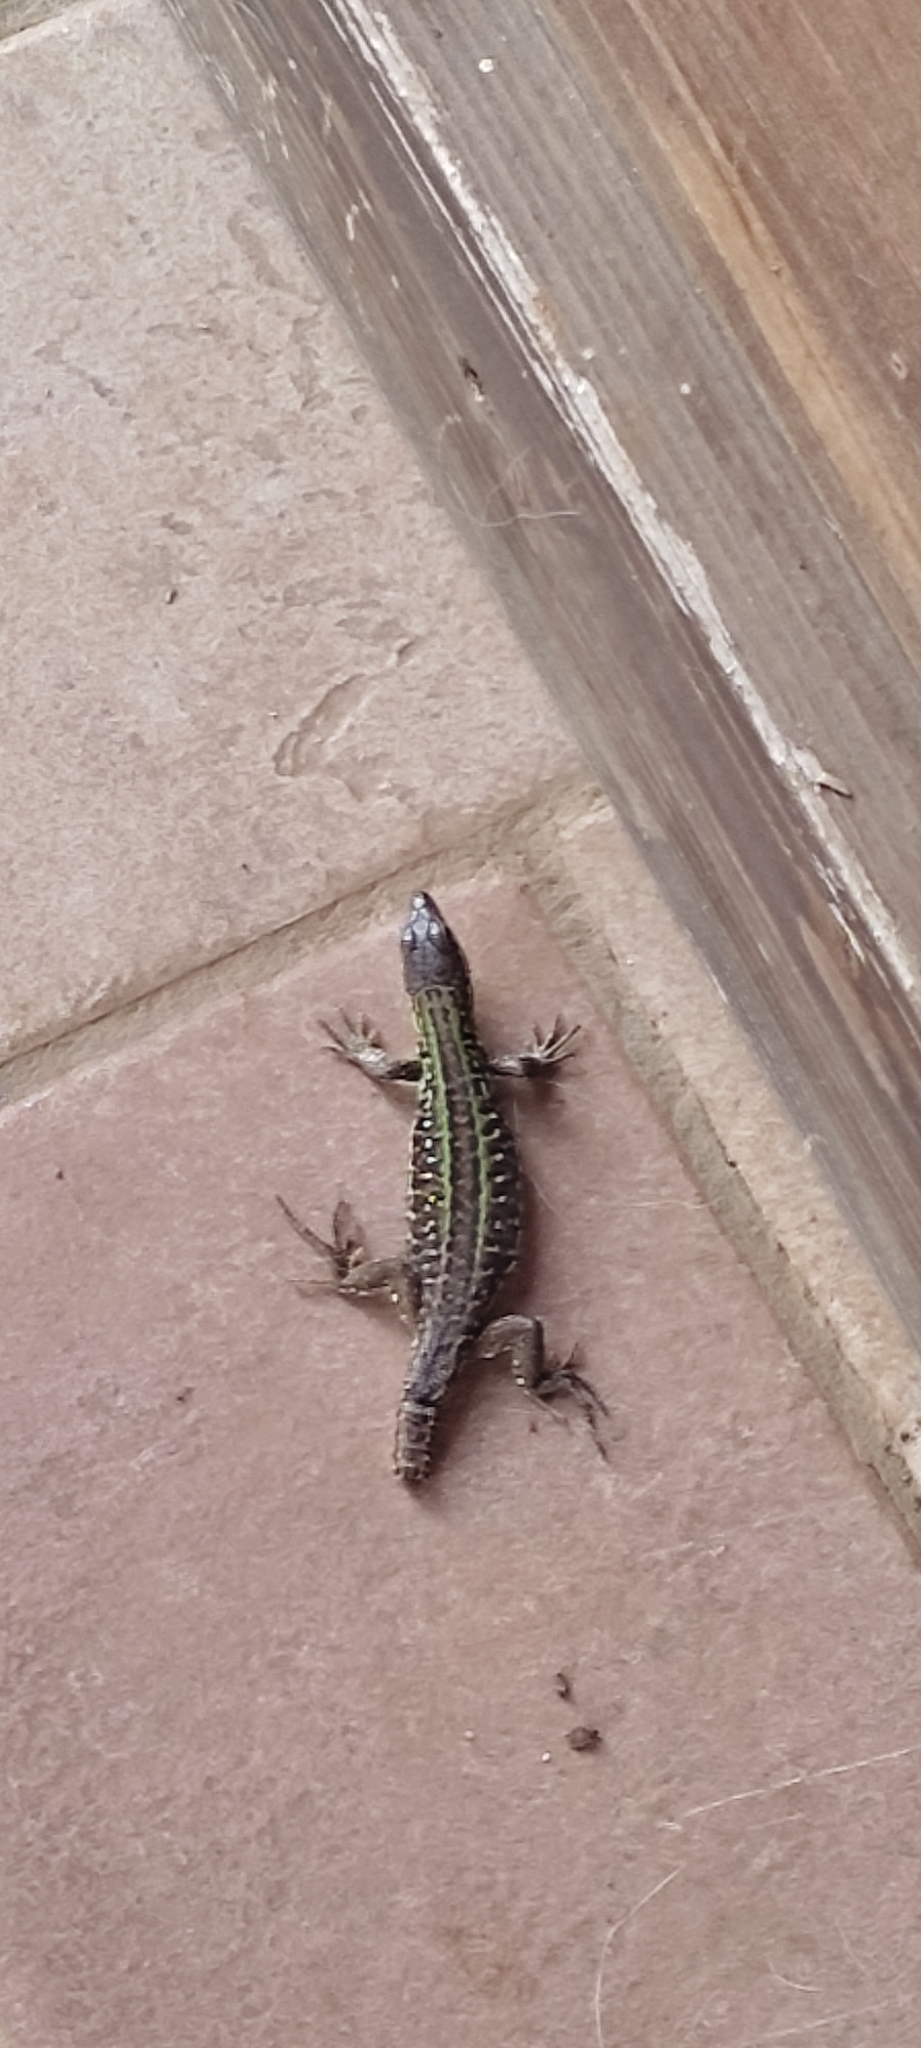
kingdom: Animalia
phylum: Chordata
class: Squamata
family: Lacertidae
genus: Podarcis
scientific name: Podarcis siculus
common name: Italian wall lizard
